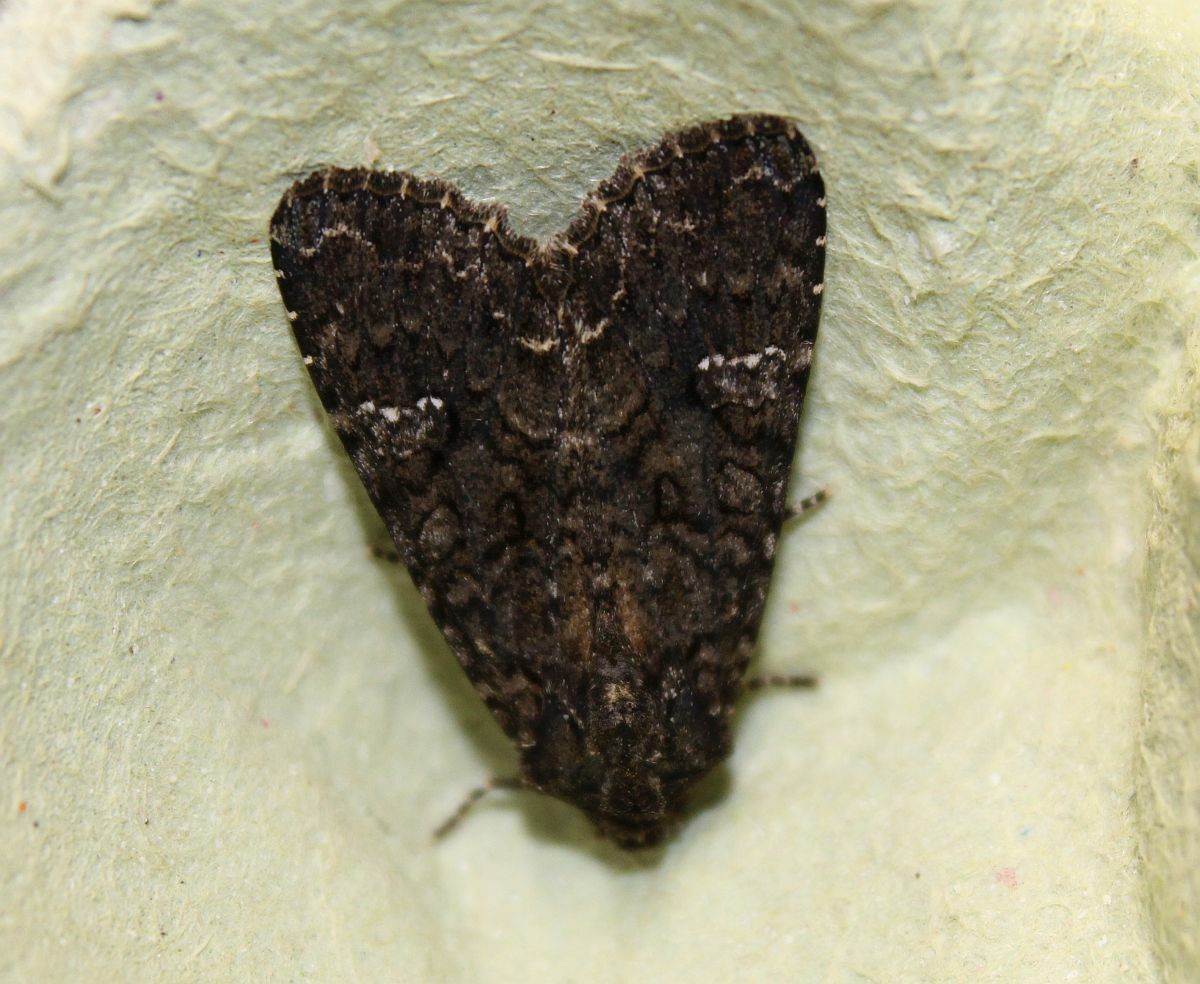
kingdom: Animalia
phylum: Arthropoda
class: Insecta
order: Lepidoptera
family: Noctuidae
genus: Mamestra
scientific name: Mamestra brassicae
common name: Cabbage moth
